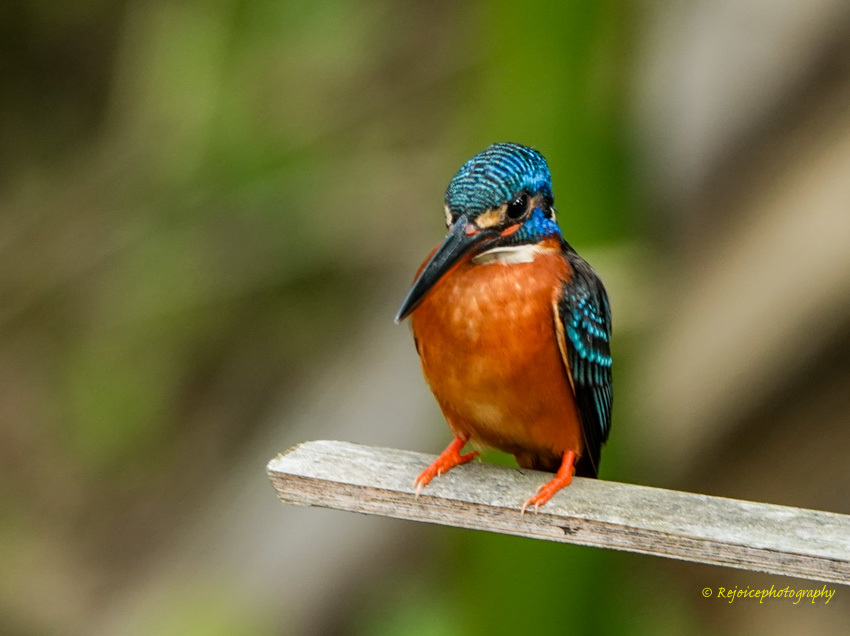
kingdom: Animalia
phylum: Chordata
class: Aves
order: Coraciiformes
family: Alcedinidae
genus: Alcedo
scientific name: Alcedo meninting
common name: Blue-eared kingfisher
